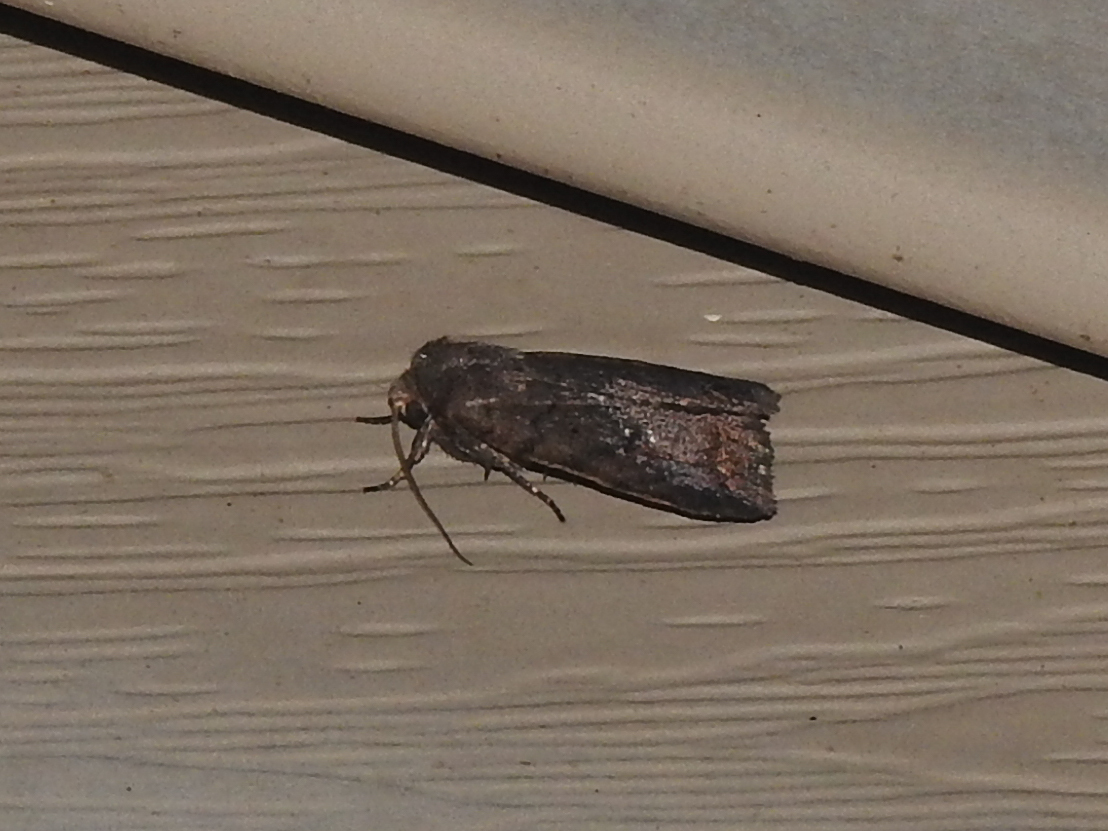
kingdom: Animalia
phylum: Arthropoda
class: Insecta
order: Lepidoptera
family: Noctuidae
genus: Athetis
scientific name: Athetis tarda
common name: Slowpoke moth
